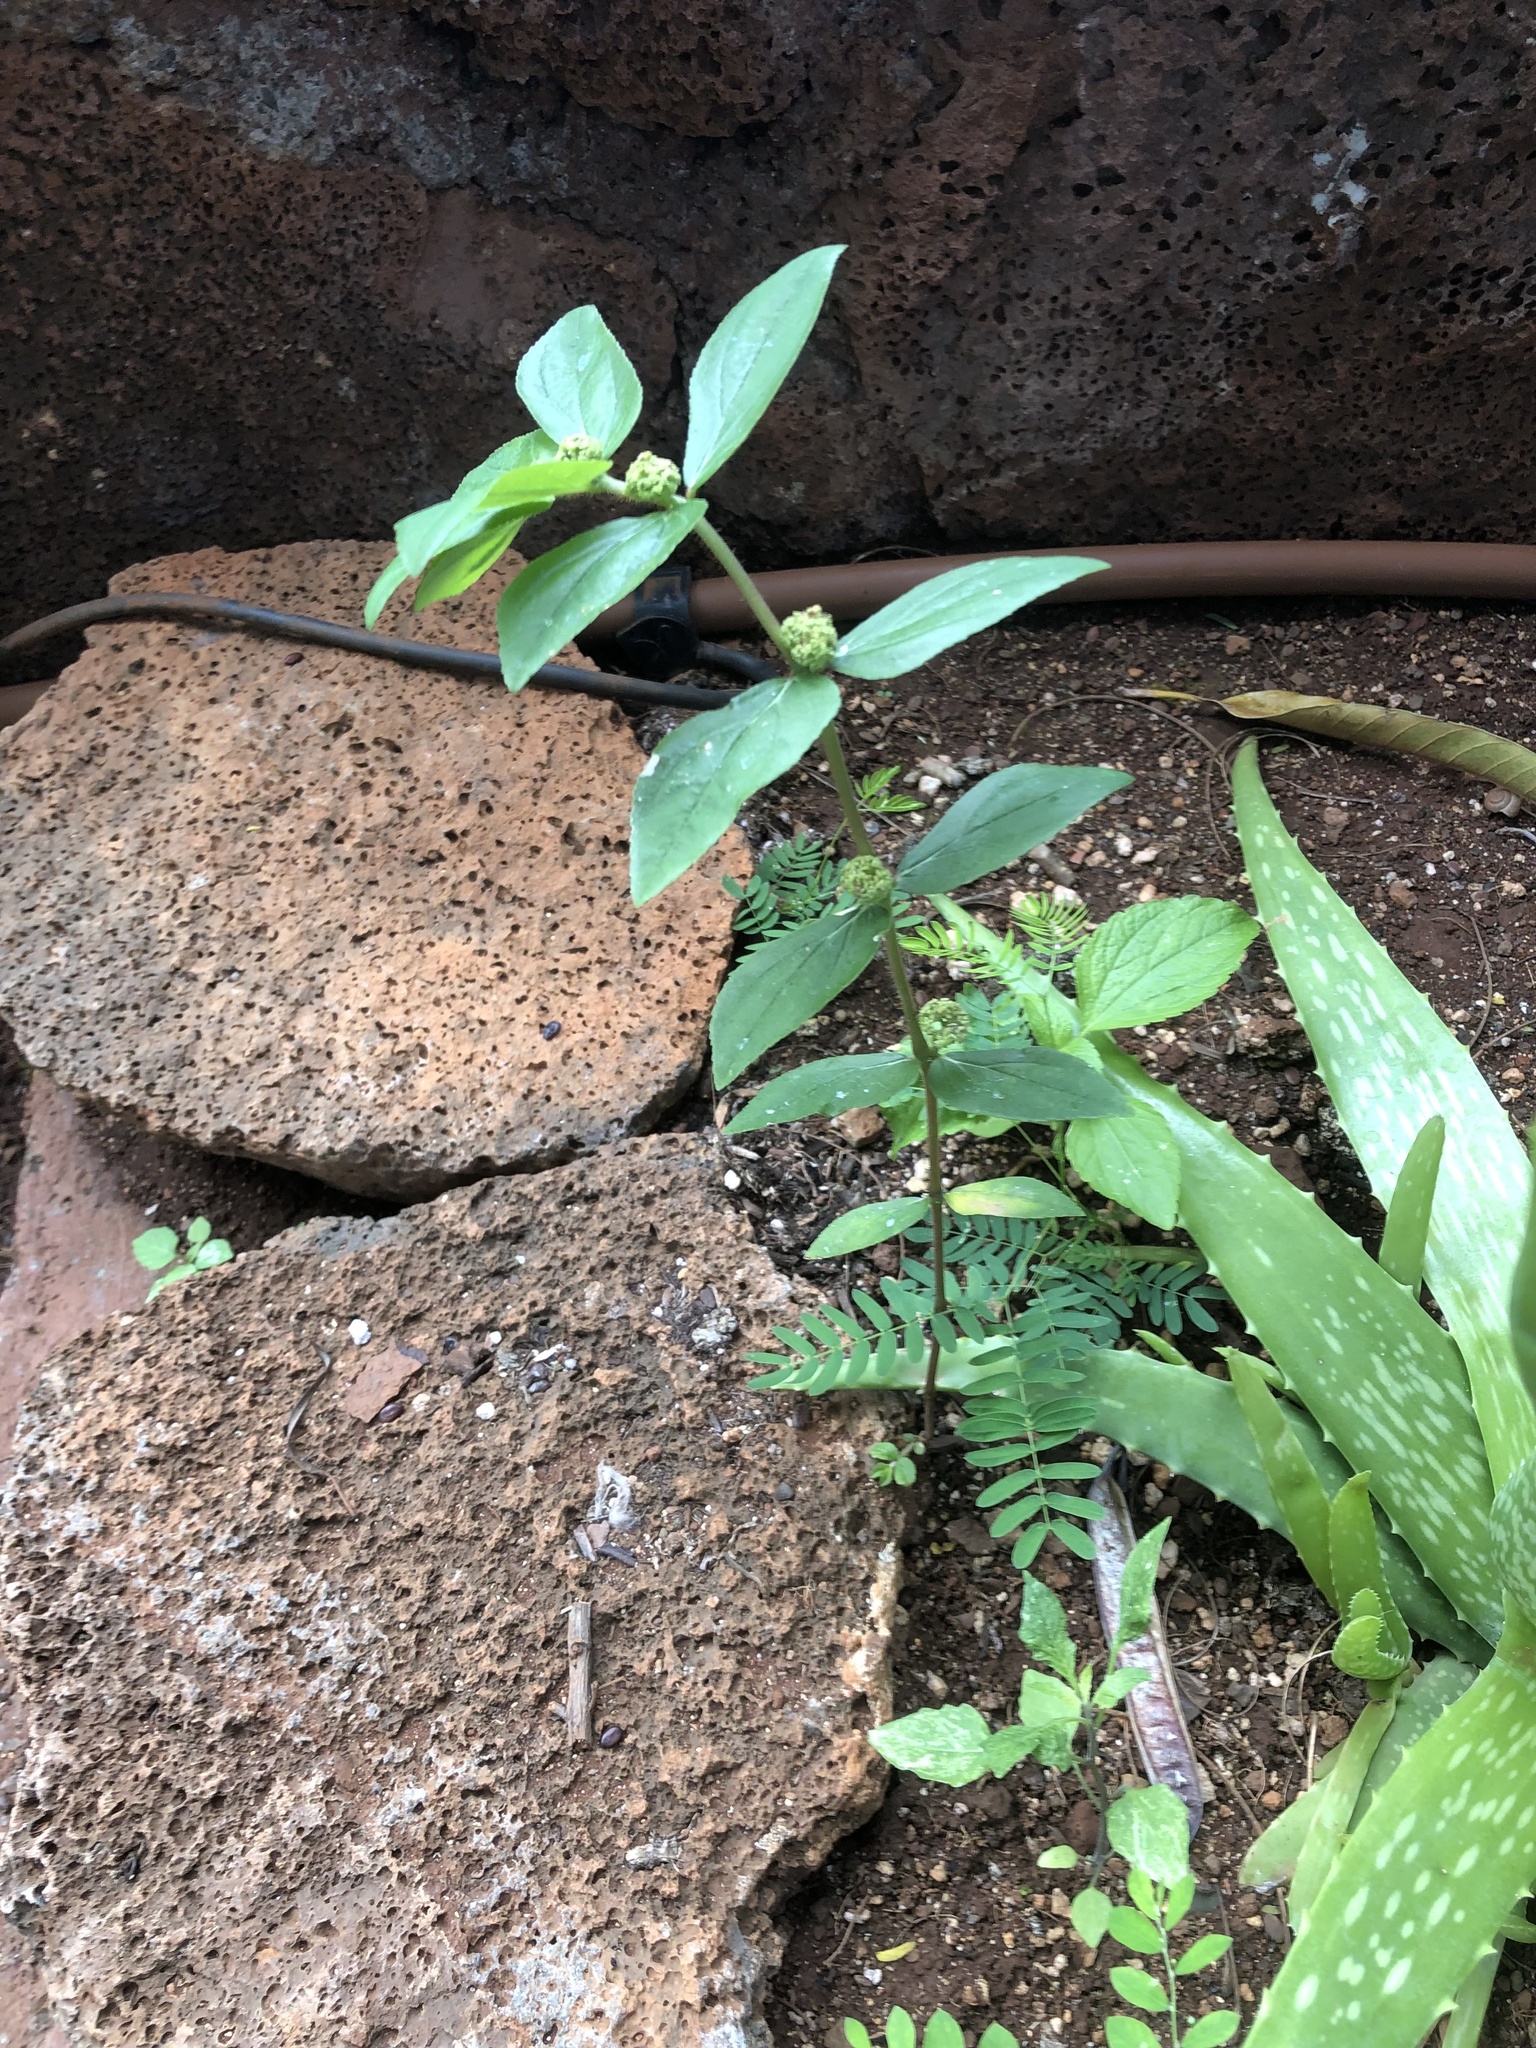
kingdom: Plantae
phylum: Tracheophyta
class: Magnoliopsida
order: Malpighiales
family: Euphorbiaceae
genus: Euphorbia
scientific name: Euphorbia hirta
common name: Pillpod sandmat
